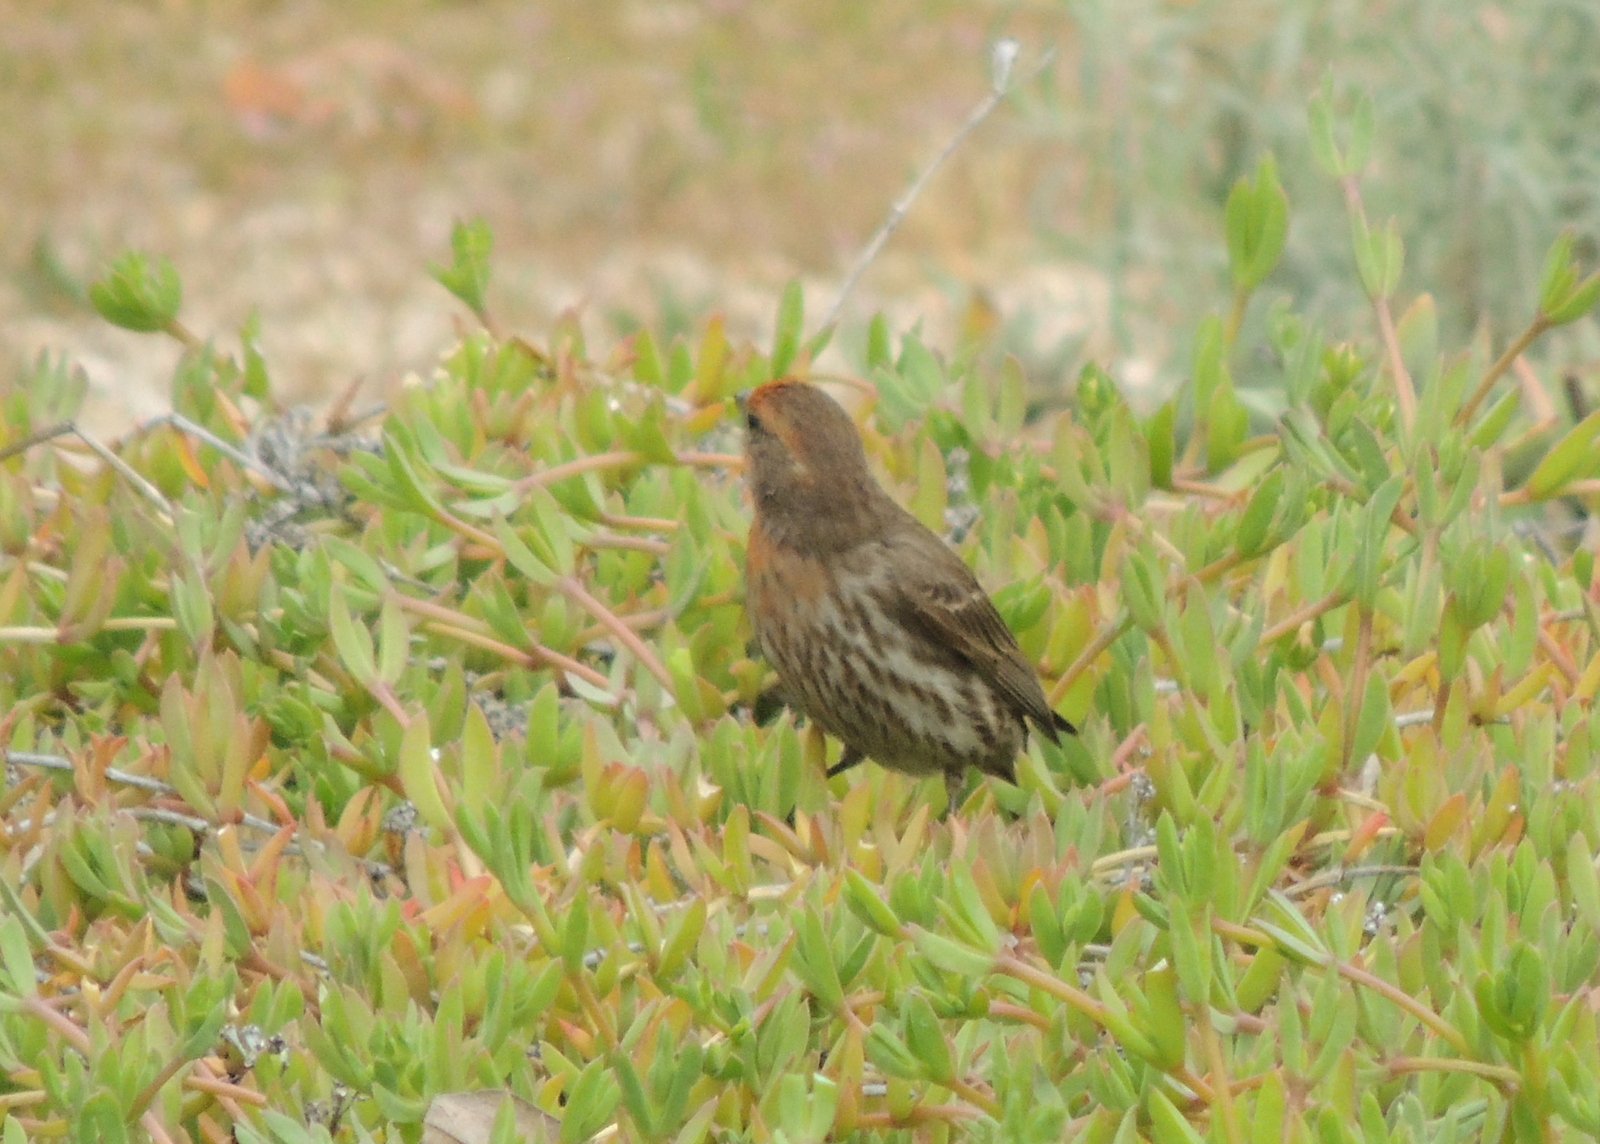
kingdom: Animalia
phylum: Chordata
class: Aves
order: Passeriformes
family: Fringillidae
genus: Haemorhous
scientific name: Haemorhous mexicanus
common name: House finch
